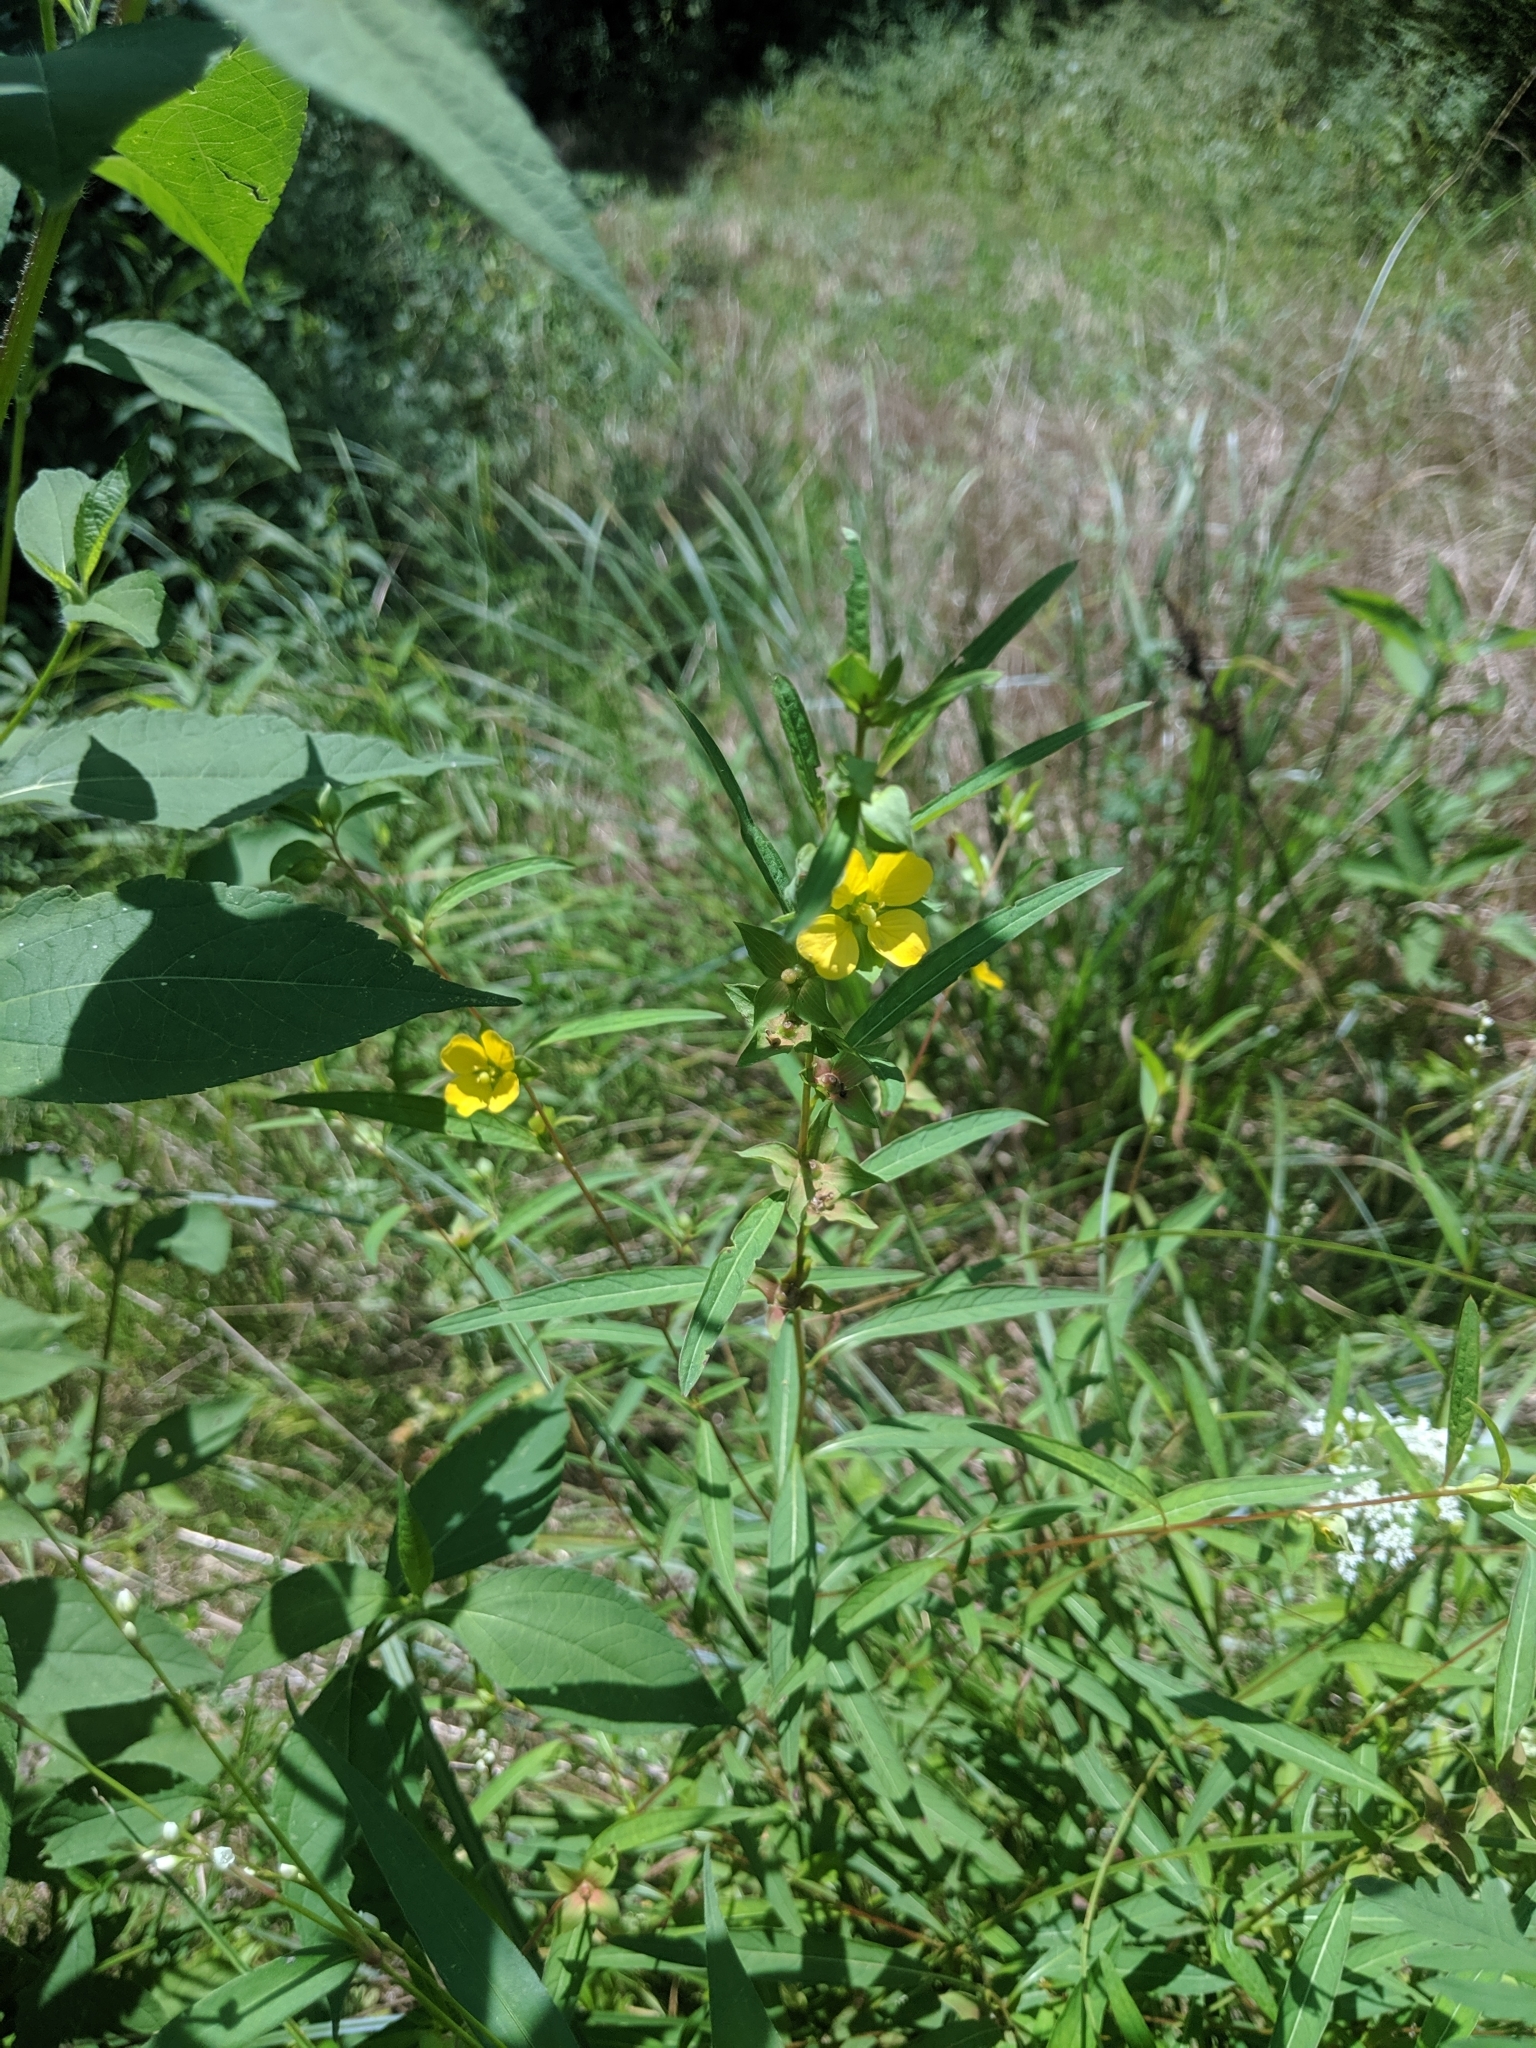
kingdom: Plantae
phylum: Tracheophyta
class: Magnoliopsida
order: Myrtales
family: Onagraceae
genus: Ludwigia
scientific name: Ludwigia alternifolia
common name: Rattlebox
